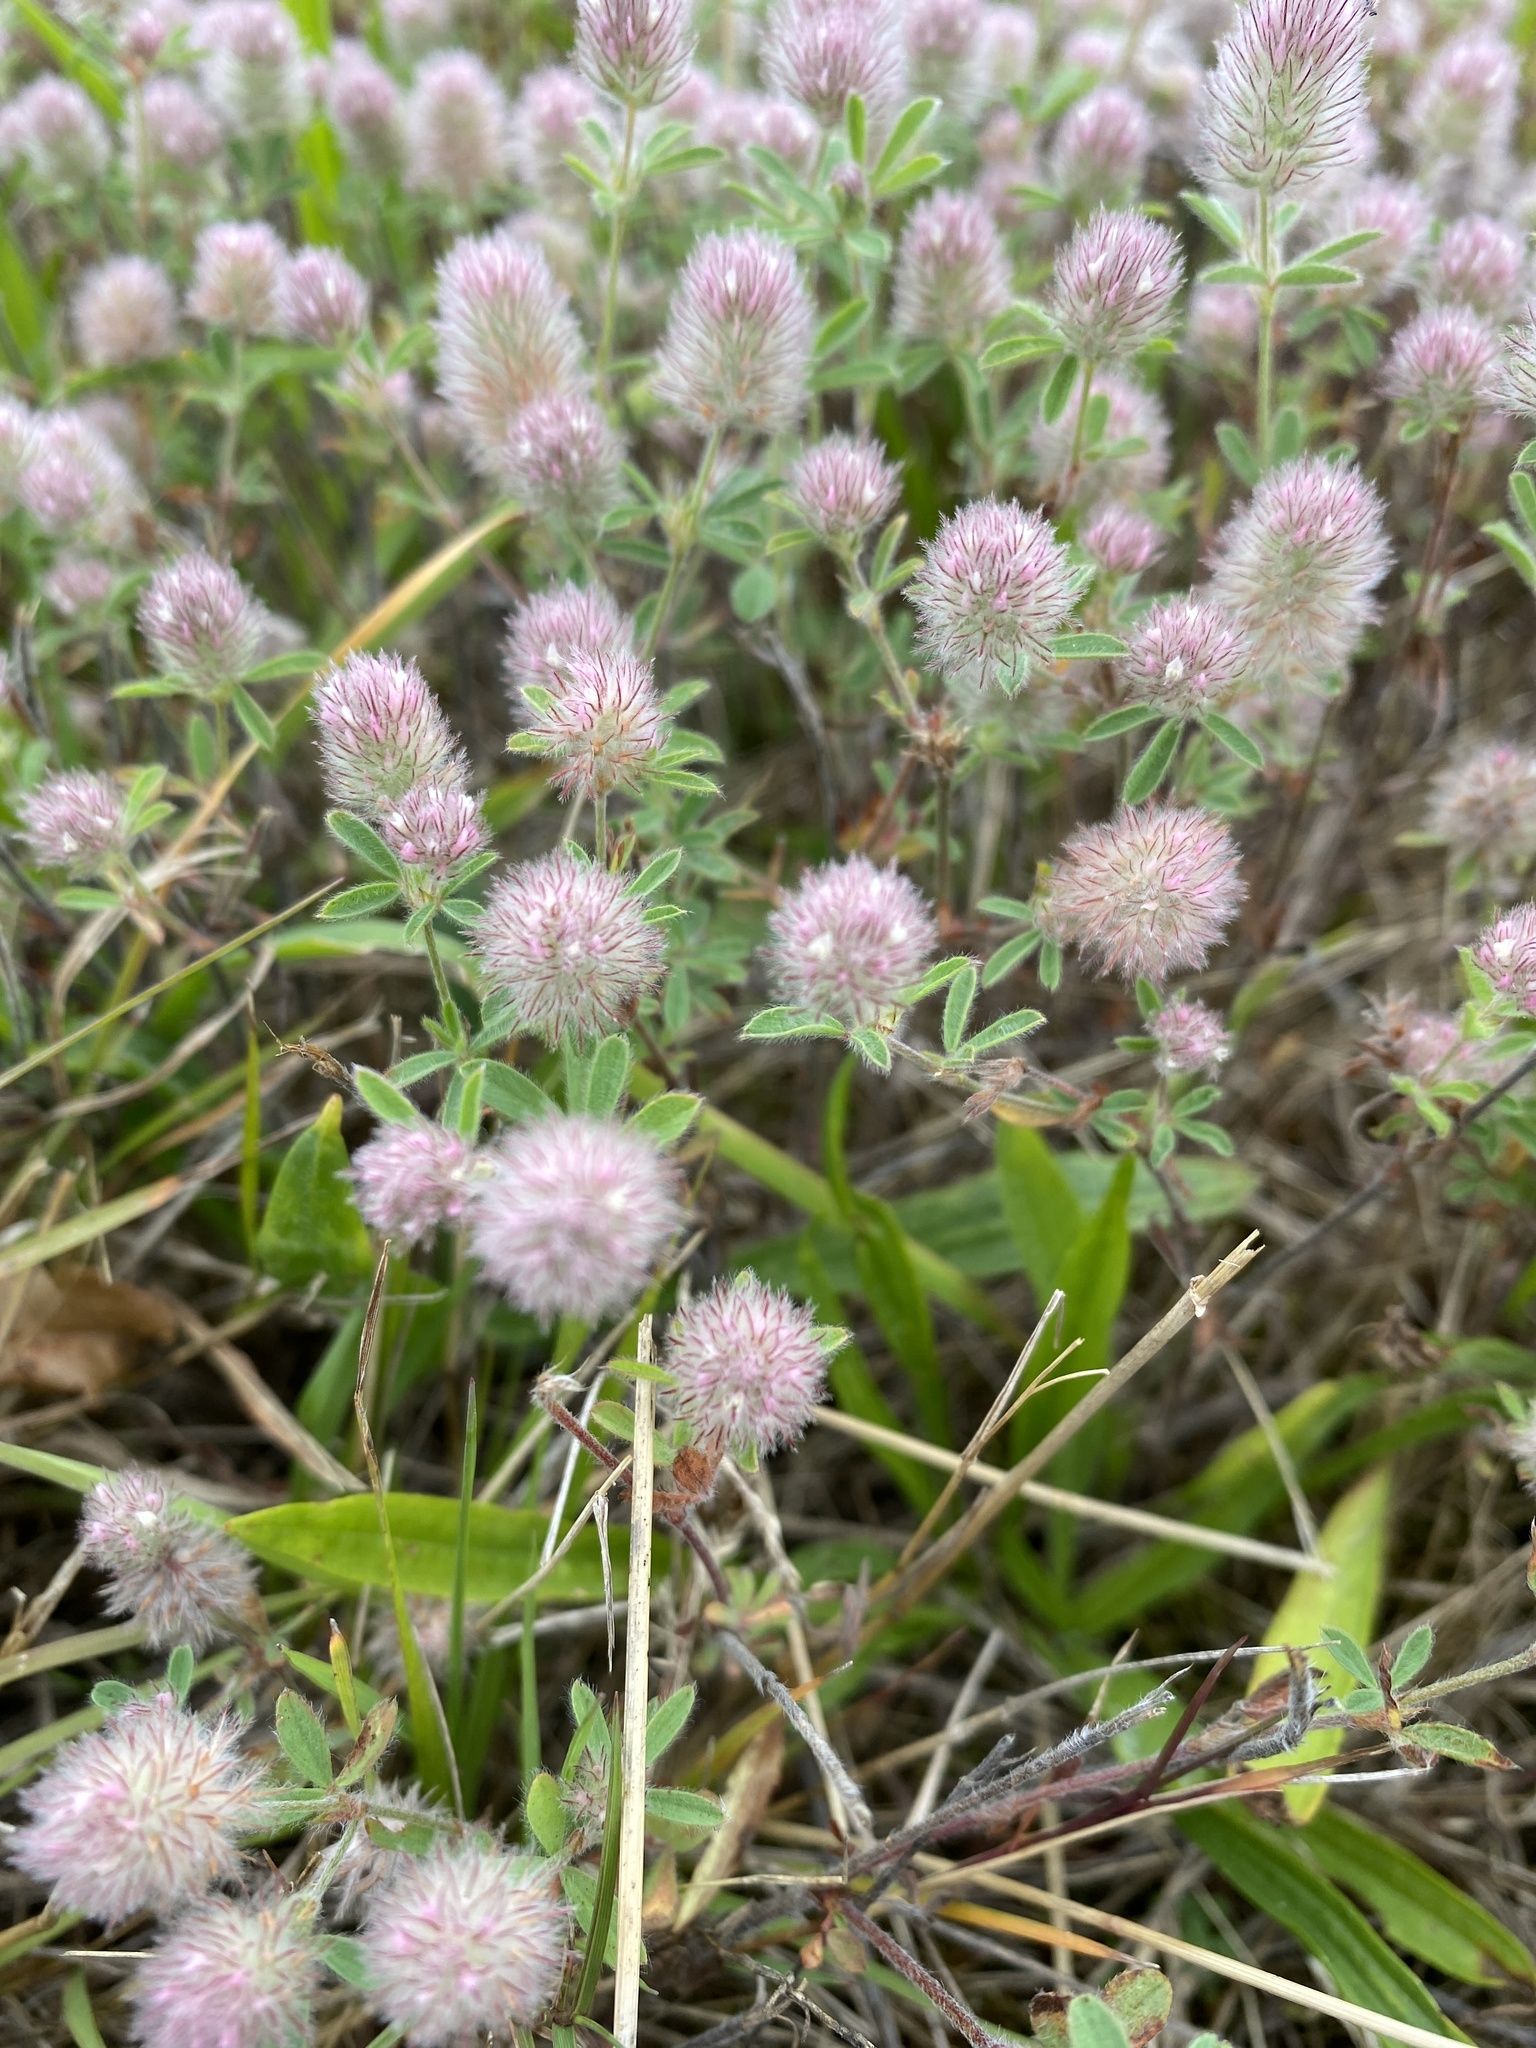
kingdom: Plantae
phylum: Tracheophyta
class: Magnoliopsida
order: Fabales
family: Fabaceae
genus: Trifolium
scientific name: Trifolium arvense
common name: Hare's-foot clover
